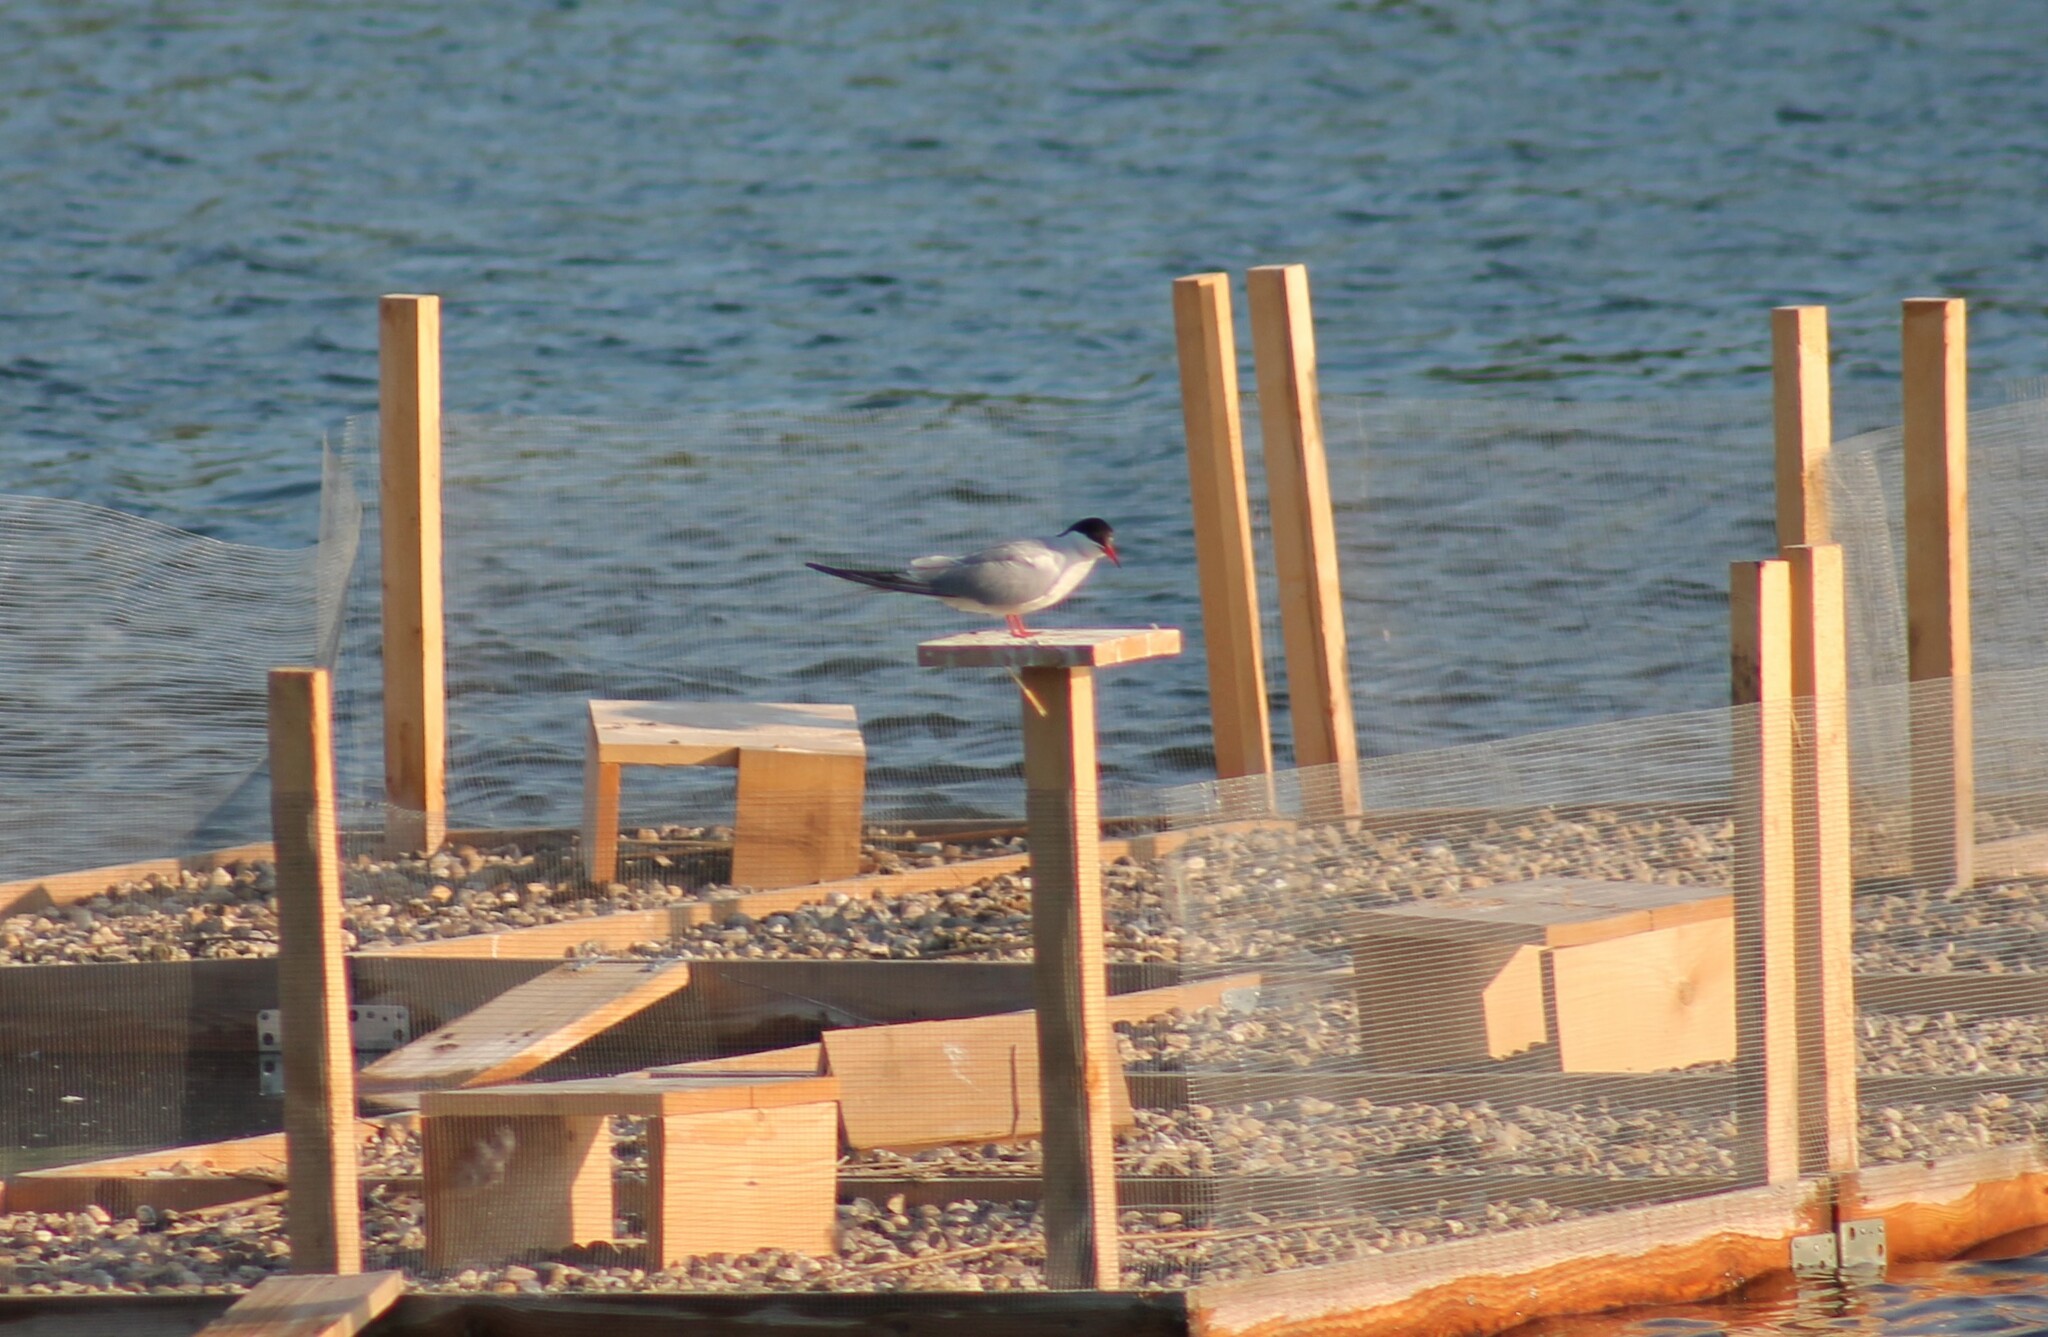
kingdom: Animalia
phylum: Chordata
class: Aves
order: Charadriiformes
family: Laridae
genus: Sterna
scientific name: Sterna hirundo
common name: Common tern
